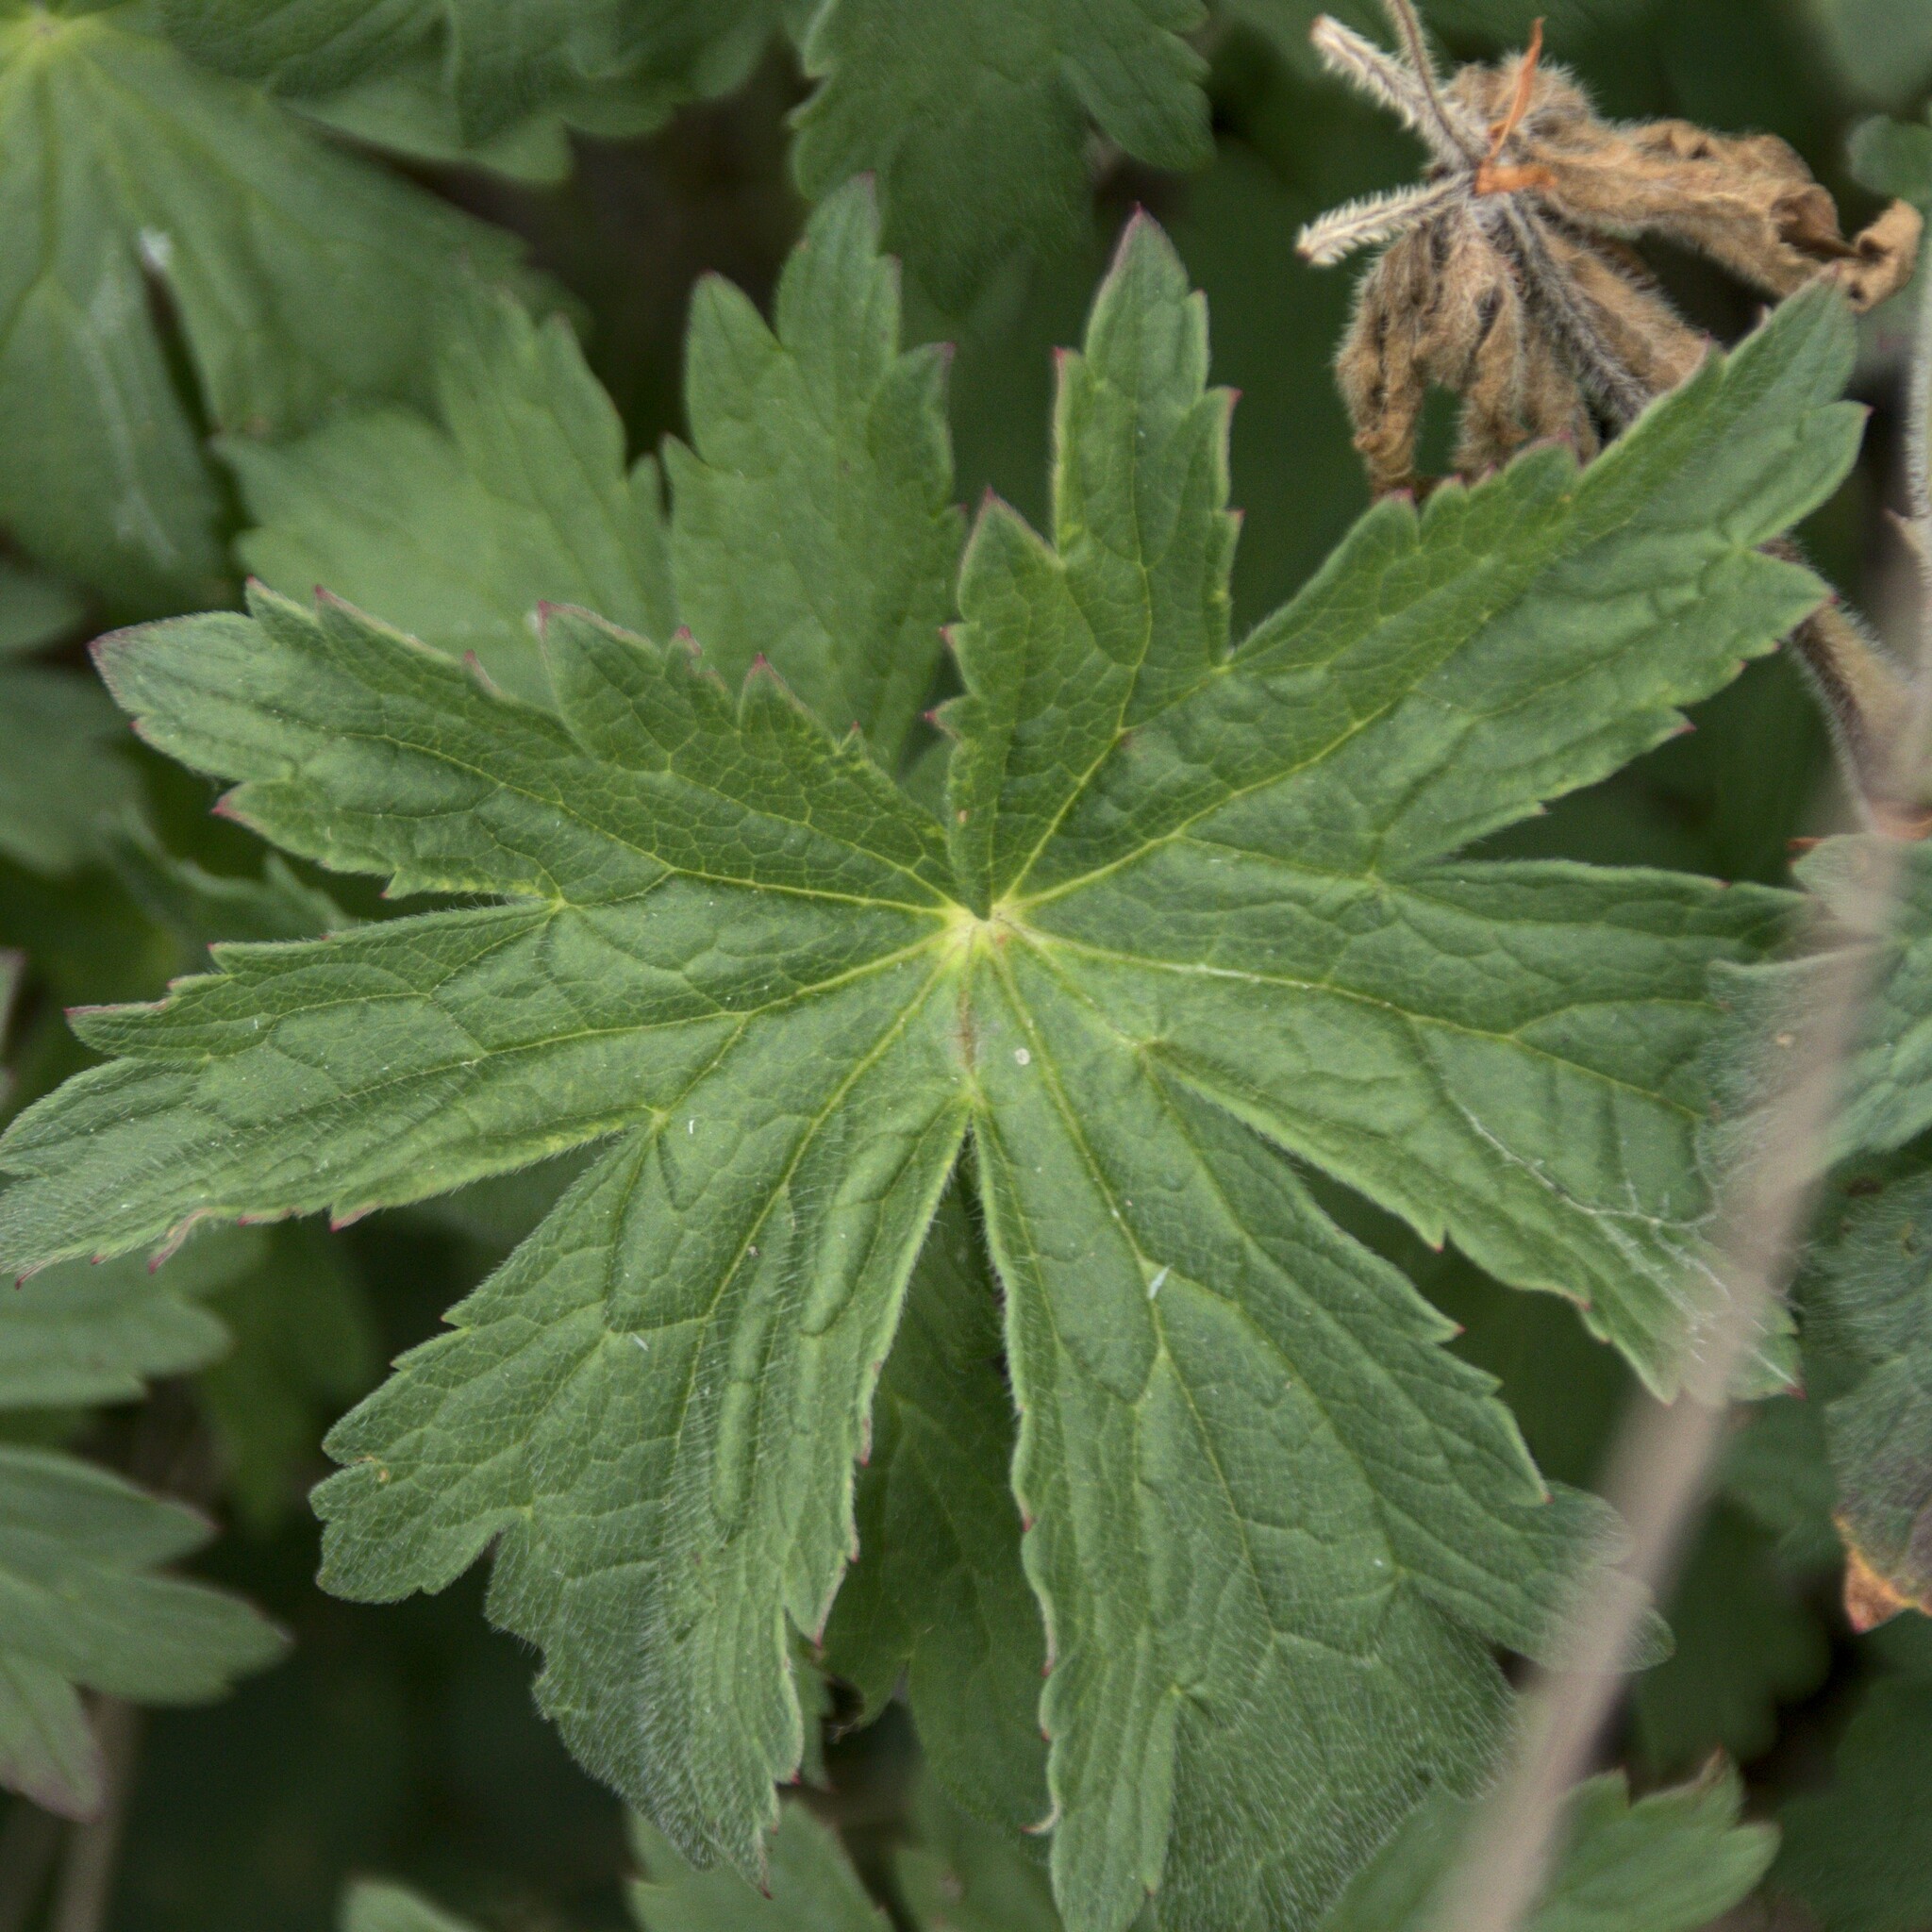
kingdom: Plantae
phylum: Tracheophyta
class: Magnoliopsida
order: Geraniales
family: Geraniaceae
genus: Geranium
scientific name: Geranium sylvaticum
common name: Wood crane's-bill
